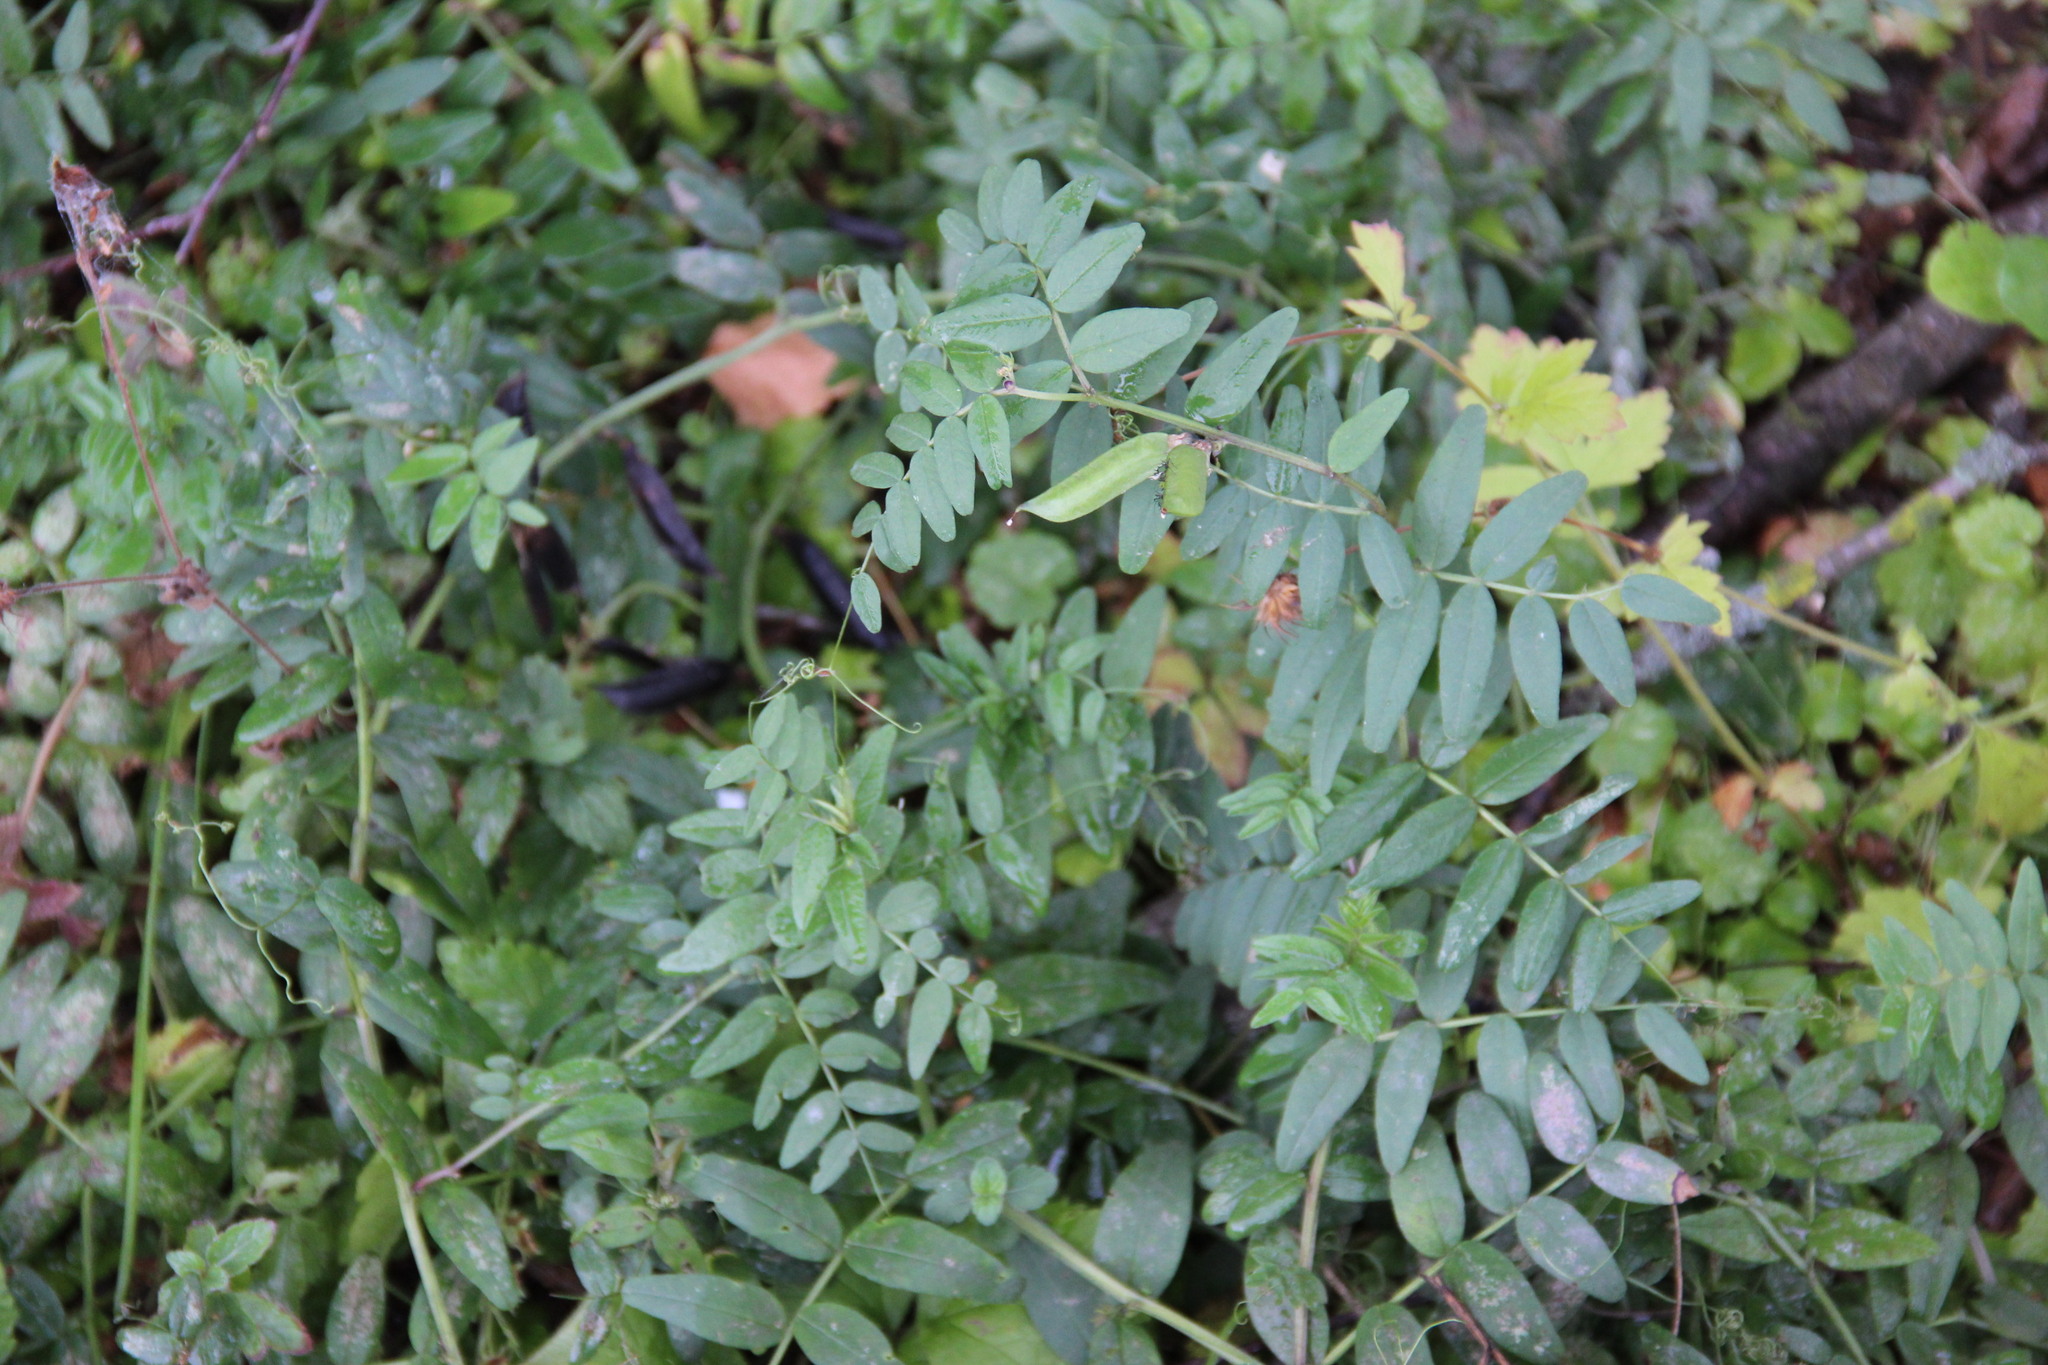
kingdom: Plantae
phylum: Tracheophyta
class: Magnoliopsida
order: Fabales
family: Fabaceae
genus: Vicia
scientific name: Vicia sepium
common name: Bush vetch
